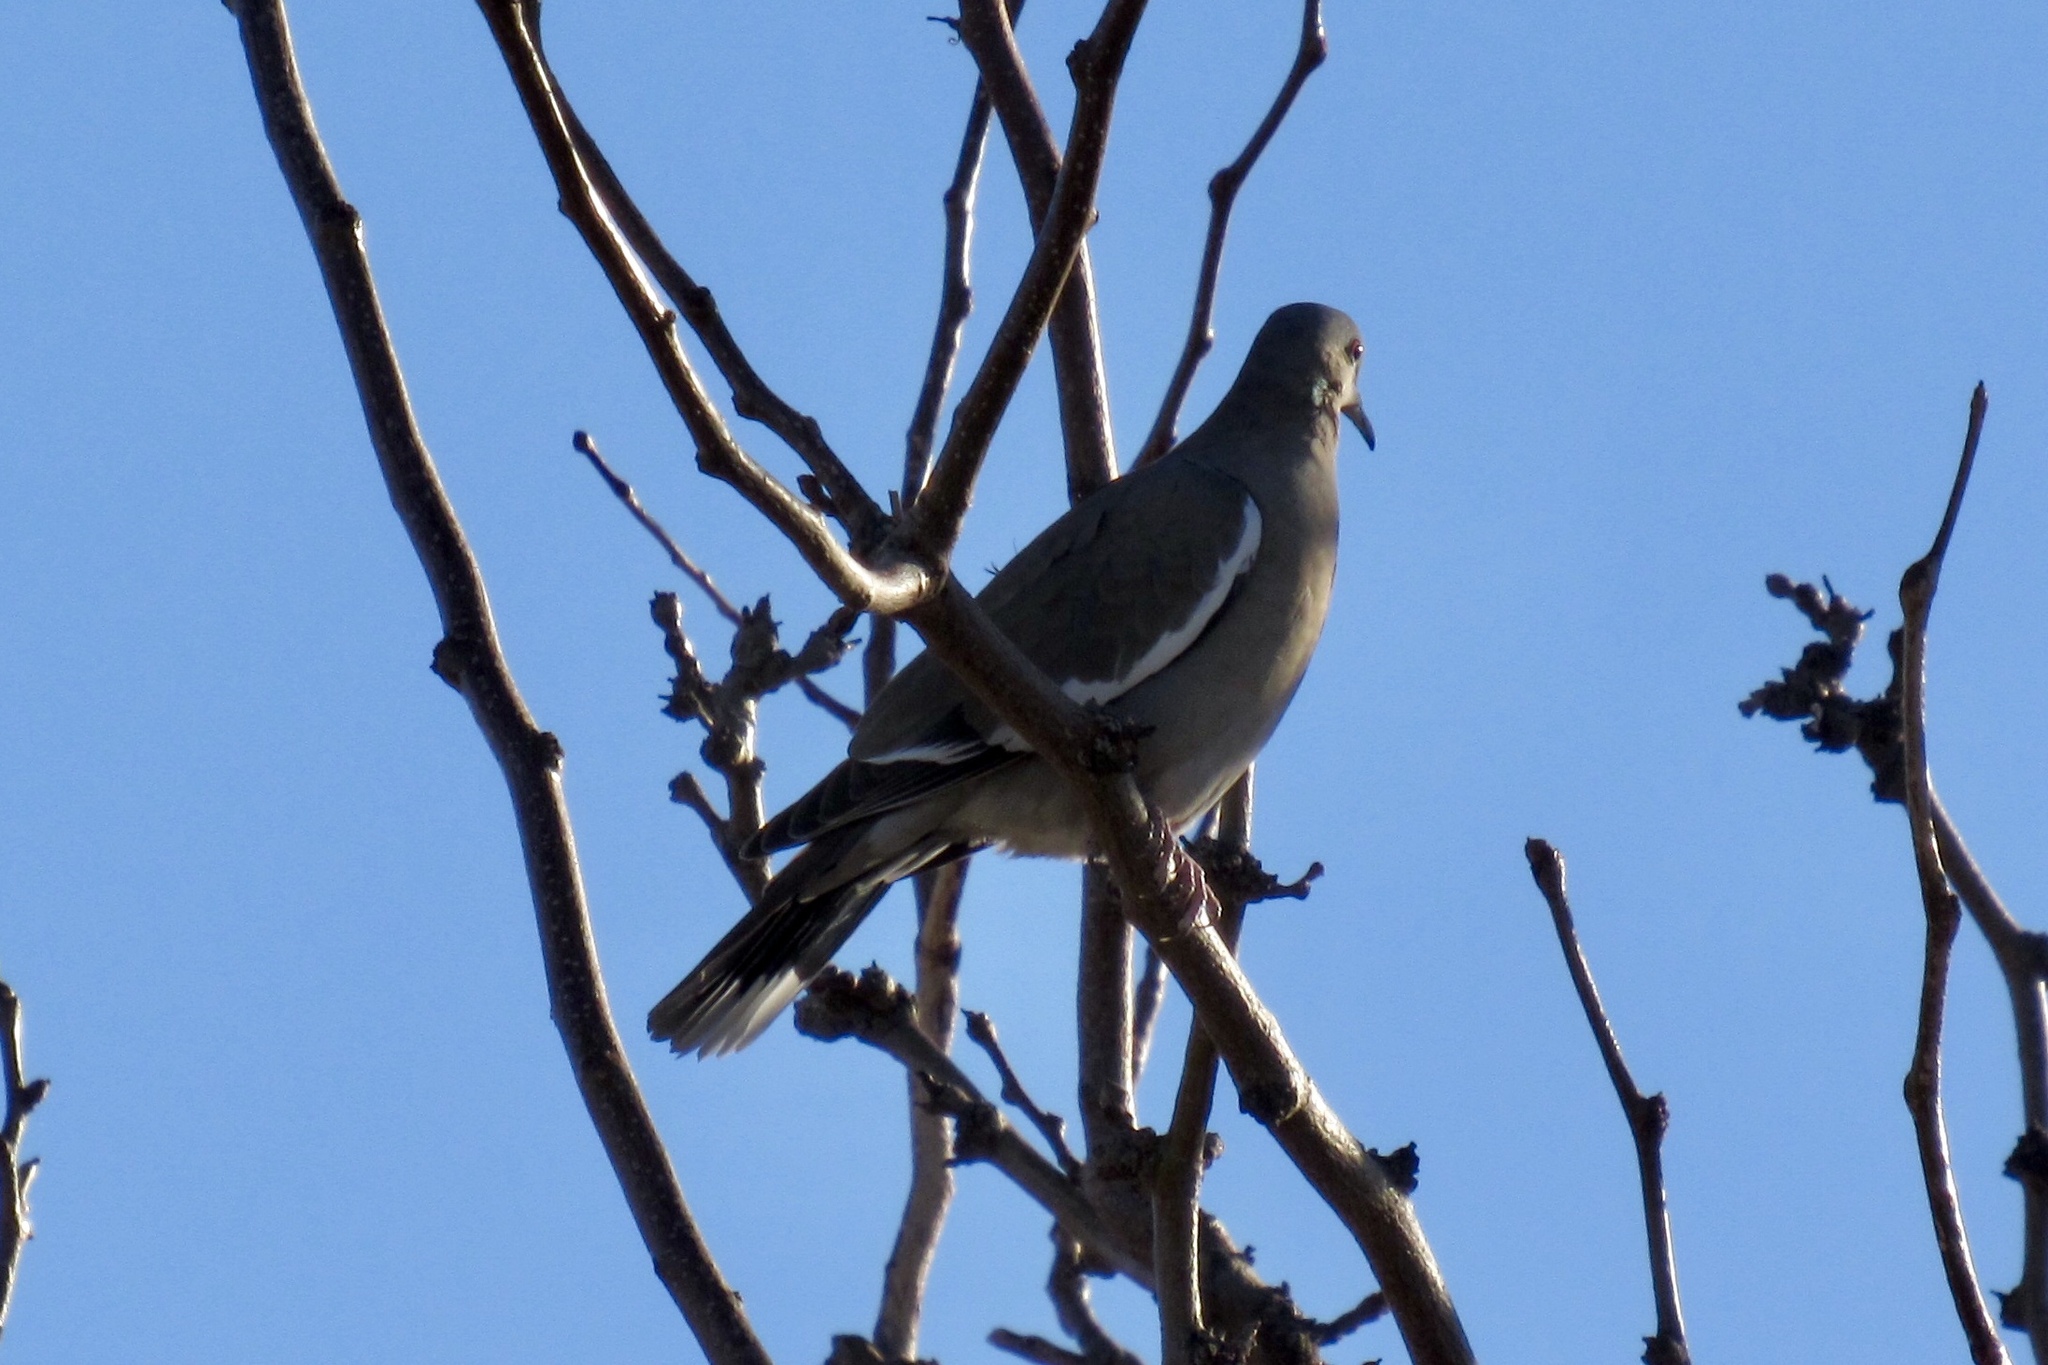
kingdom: Animalia
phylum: Chordata
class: Aves
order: Columbiformes
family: Columbidae
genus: Zenaida
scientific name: Zenaida asiatica
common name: White-winged dove
